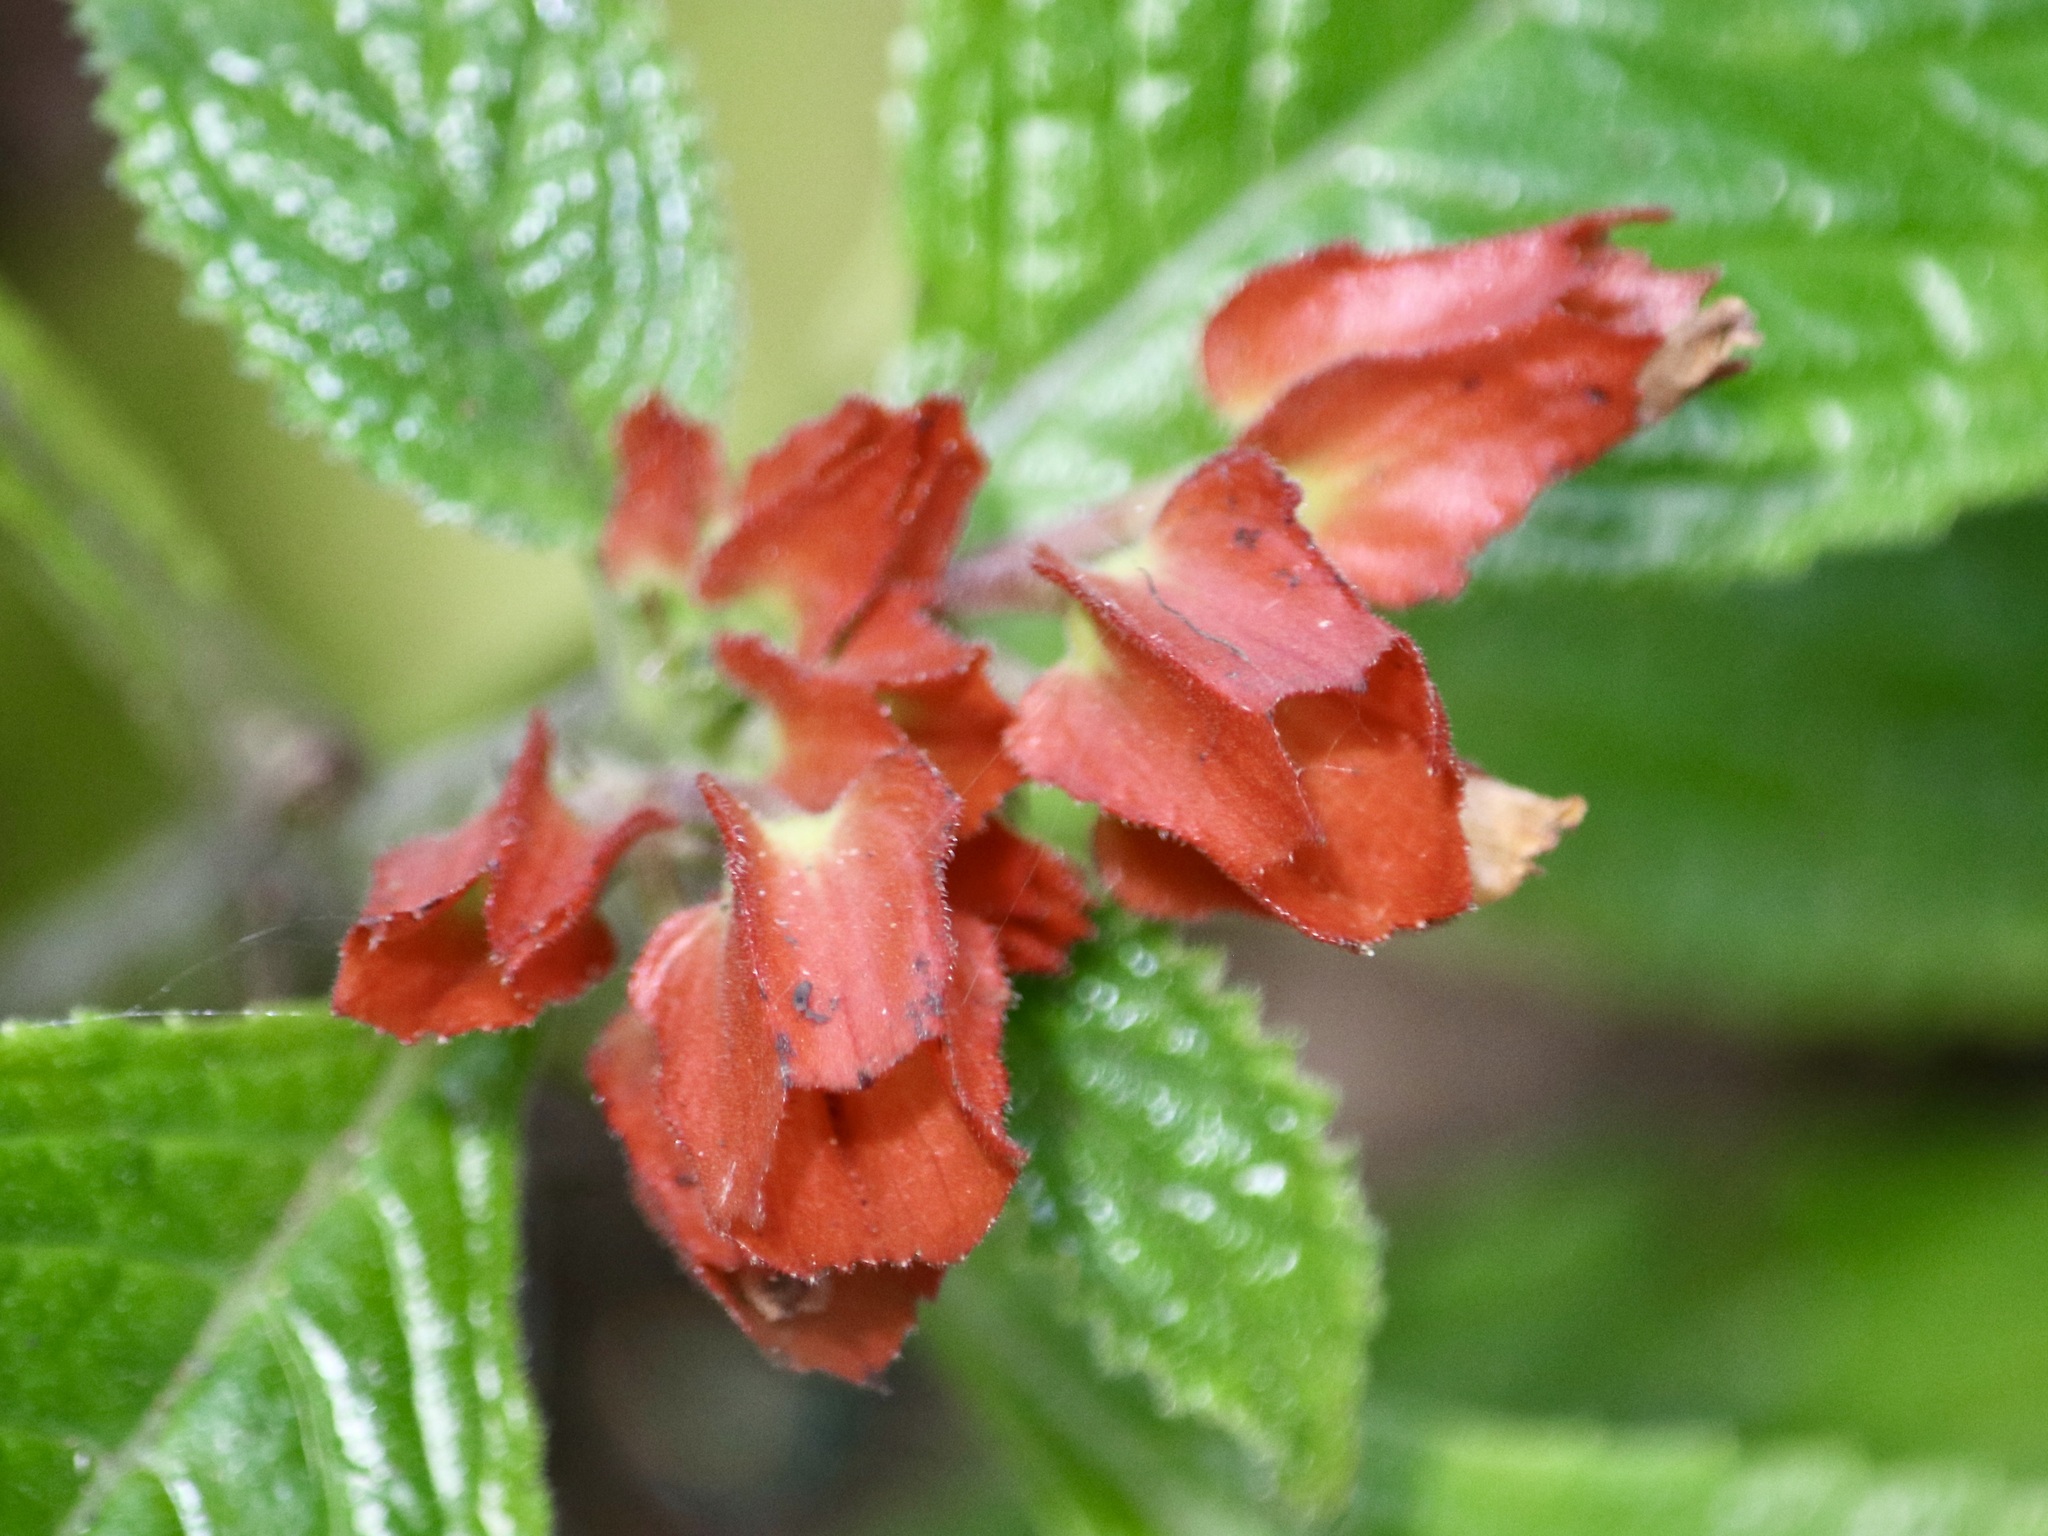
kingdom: Plantae
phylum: Tracheophyta
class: Magnoliopsida
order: Lamiales
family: Gesneriaceae
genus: Chrysothemis
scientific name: Chrysothemis pulchella
